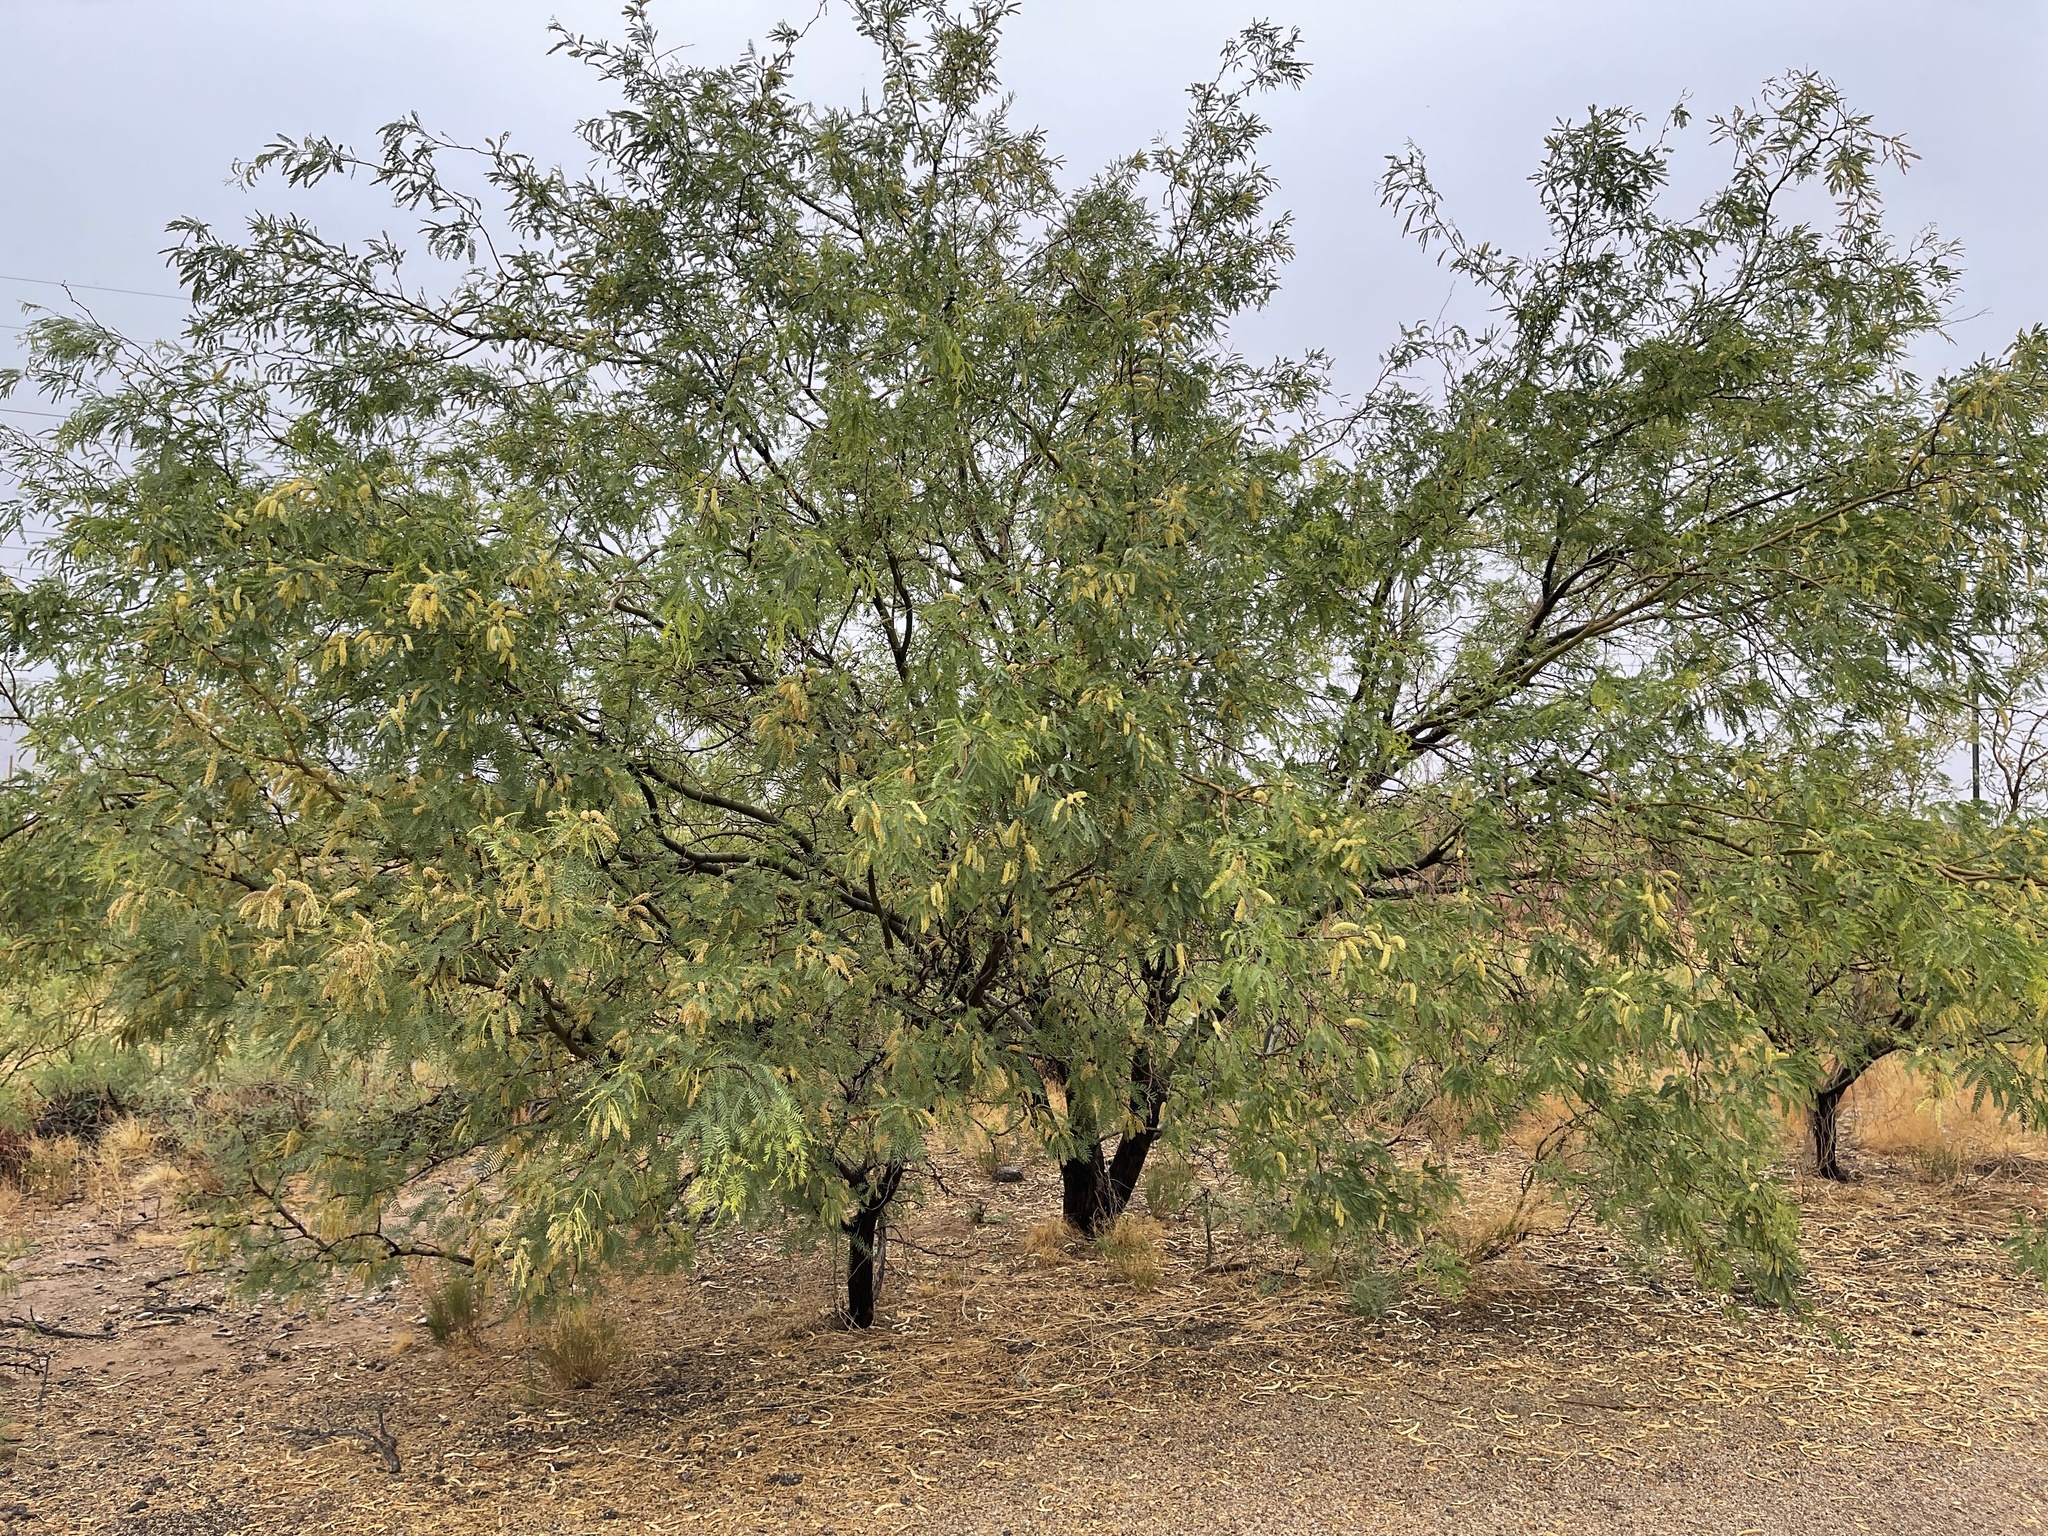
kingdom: Plantae
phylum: Tracheophyta
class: Magnoliopsida
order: Fabales
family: Fabaceae
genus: Prosopis
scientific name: Prosopis glandulosa
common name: Honey mesquite
